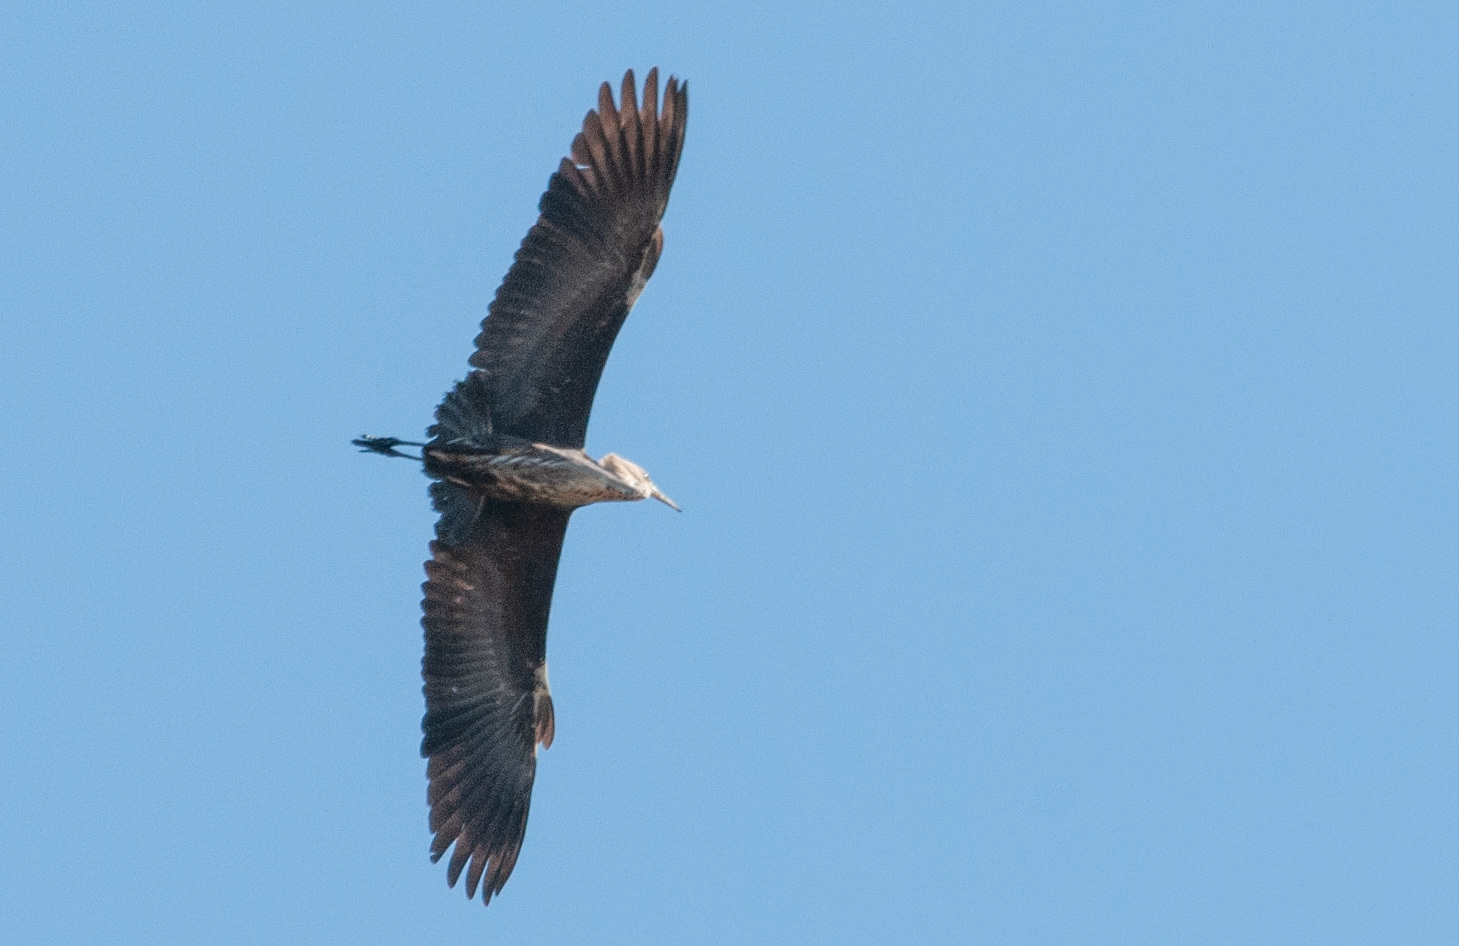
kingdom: Animalia
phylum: Chordata
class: Aves
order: Pelecaniformes
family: Ardeidae
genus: Ardea
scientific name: Ardea pacifica
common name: White-necked heron
